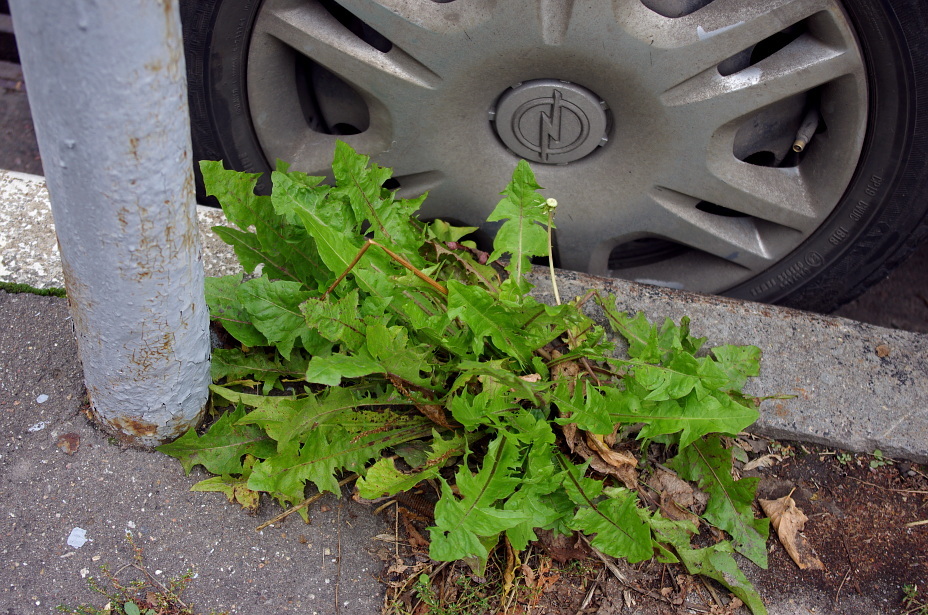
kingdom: Plantae
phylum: Tracheophyta
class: Magnoliopsida
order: Asterales
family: Asteraceae
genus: Taraxacum
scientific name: Taraxacum officinale
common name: Common dandelion
